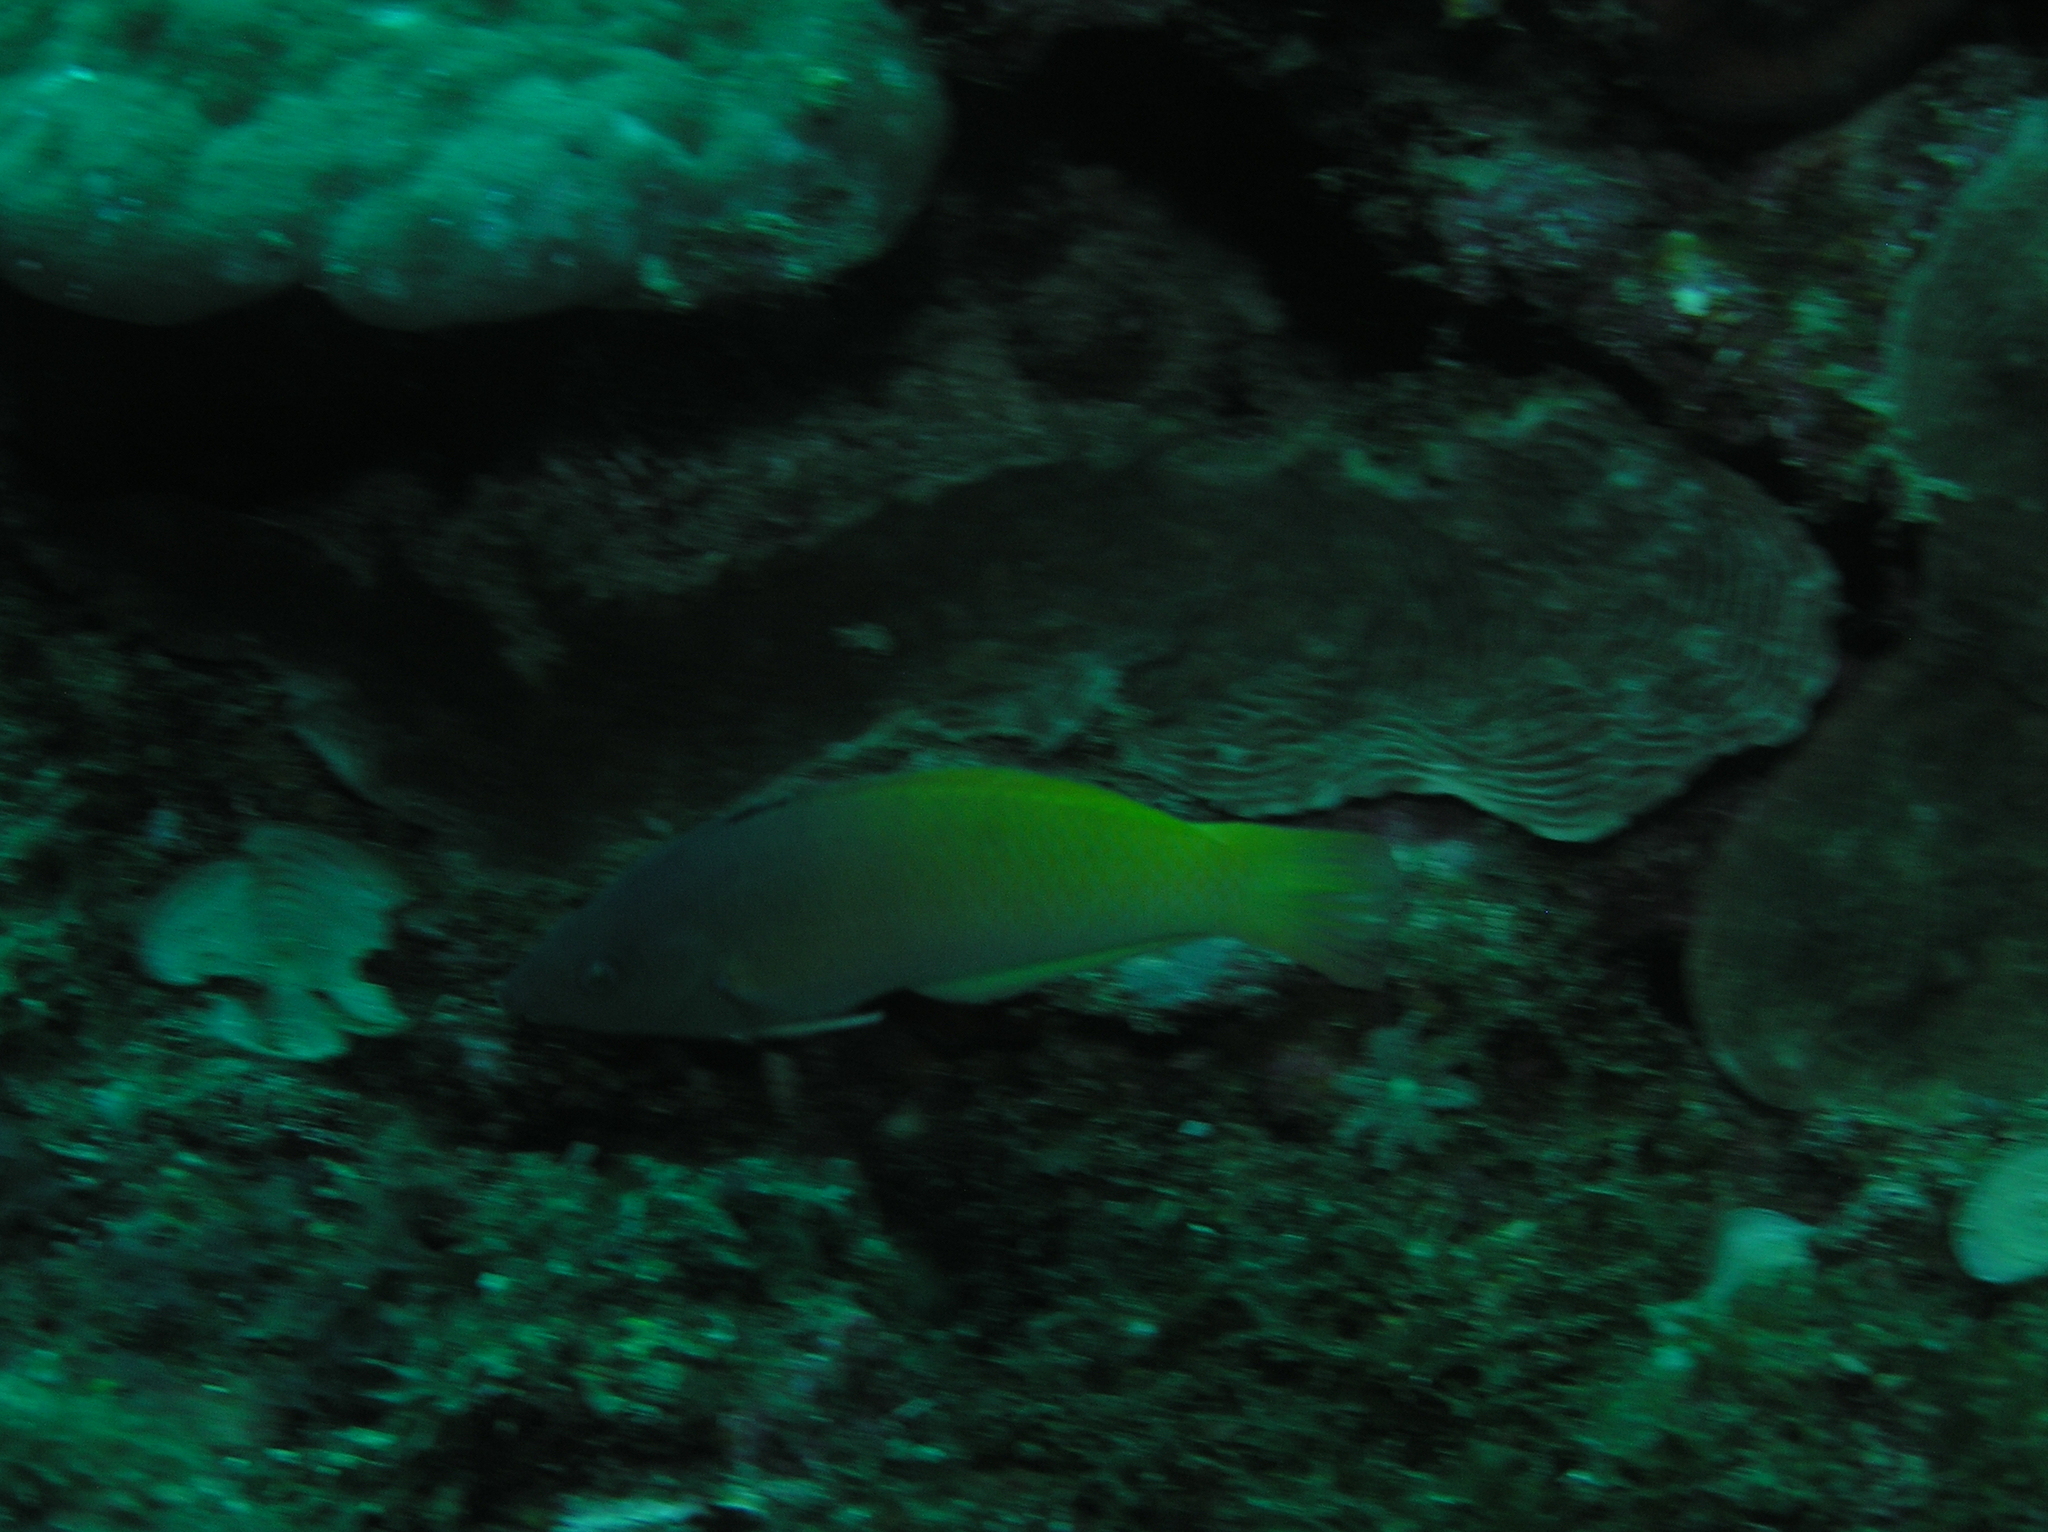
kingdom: Animalia
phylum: Chordata
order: Perciformes
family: Labridae
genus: Halichoeres
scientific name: Halichoeres prosopeion
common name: Half-grey wrasse
